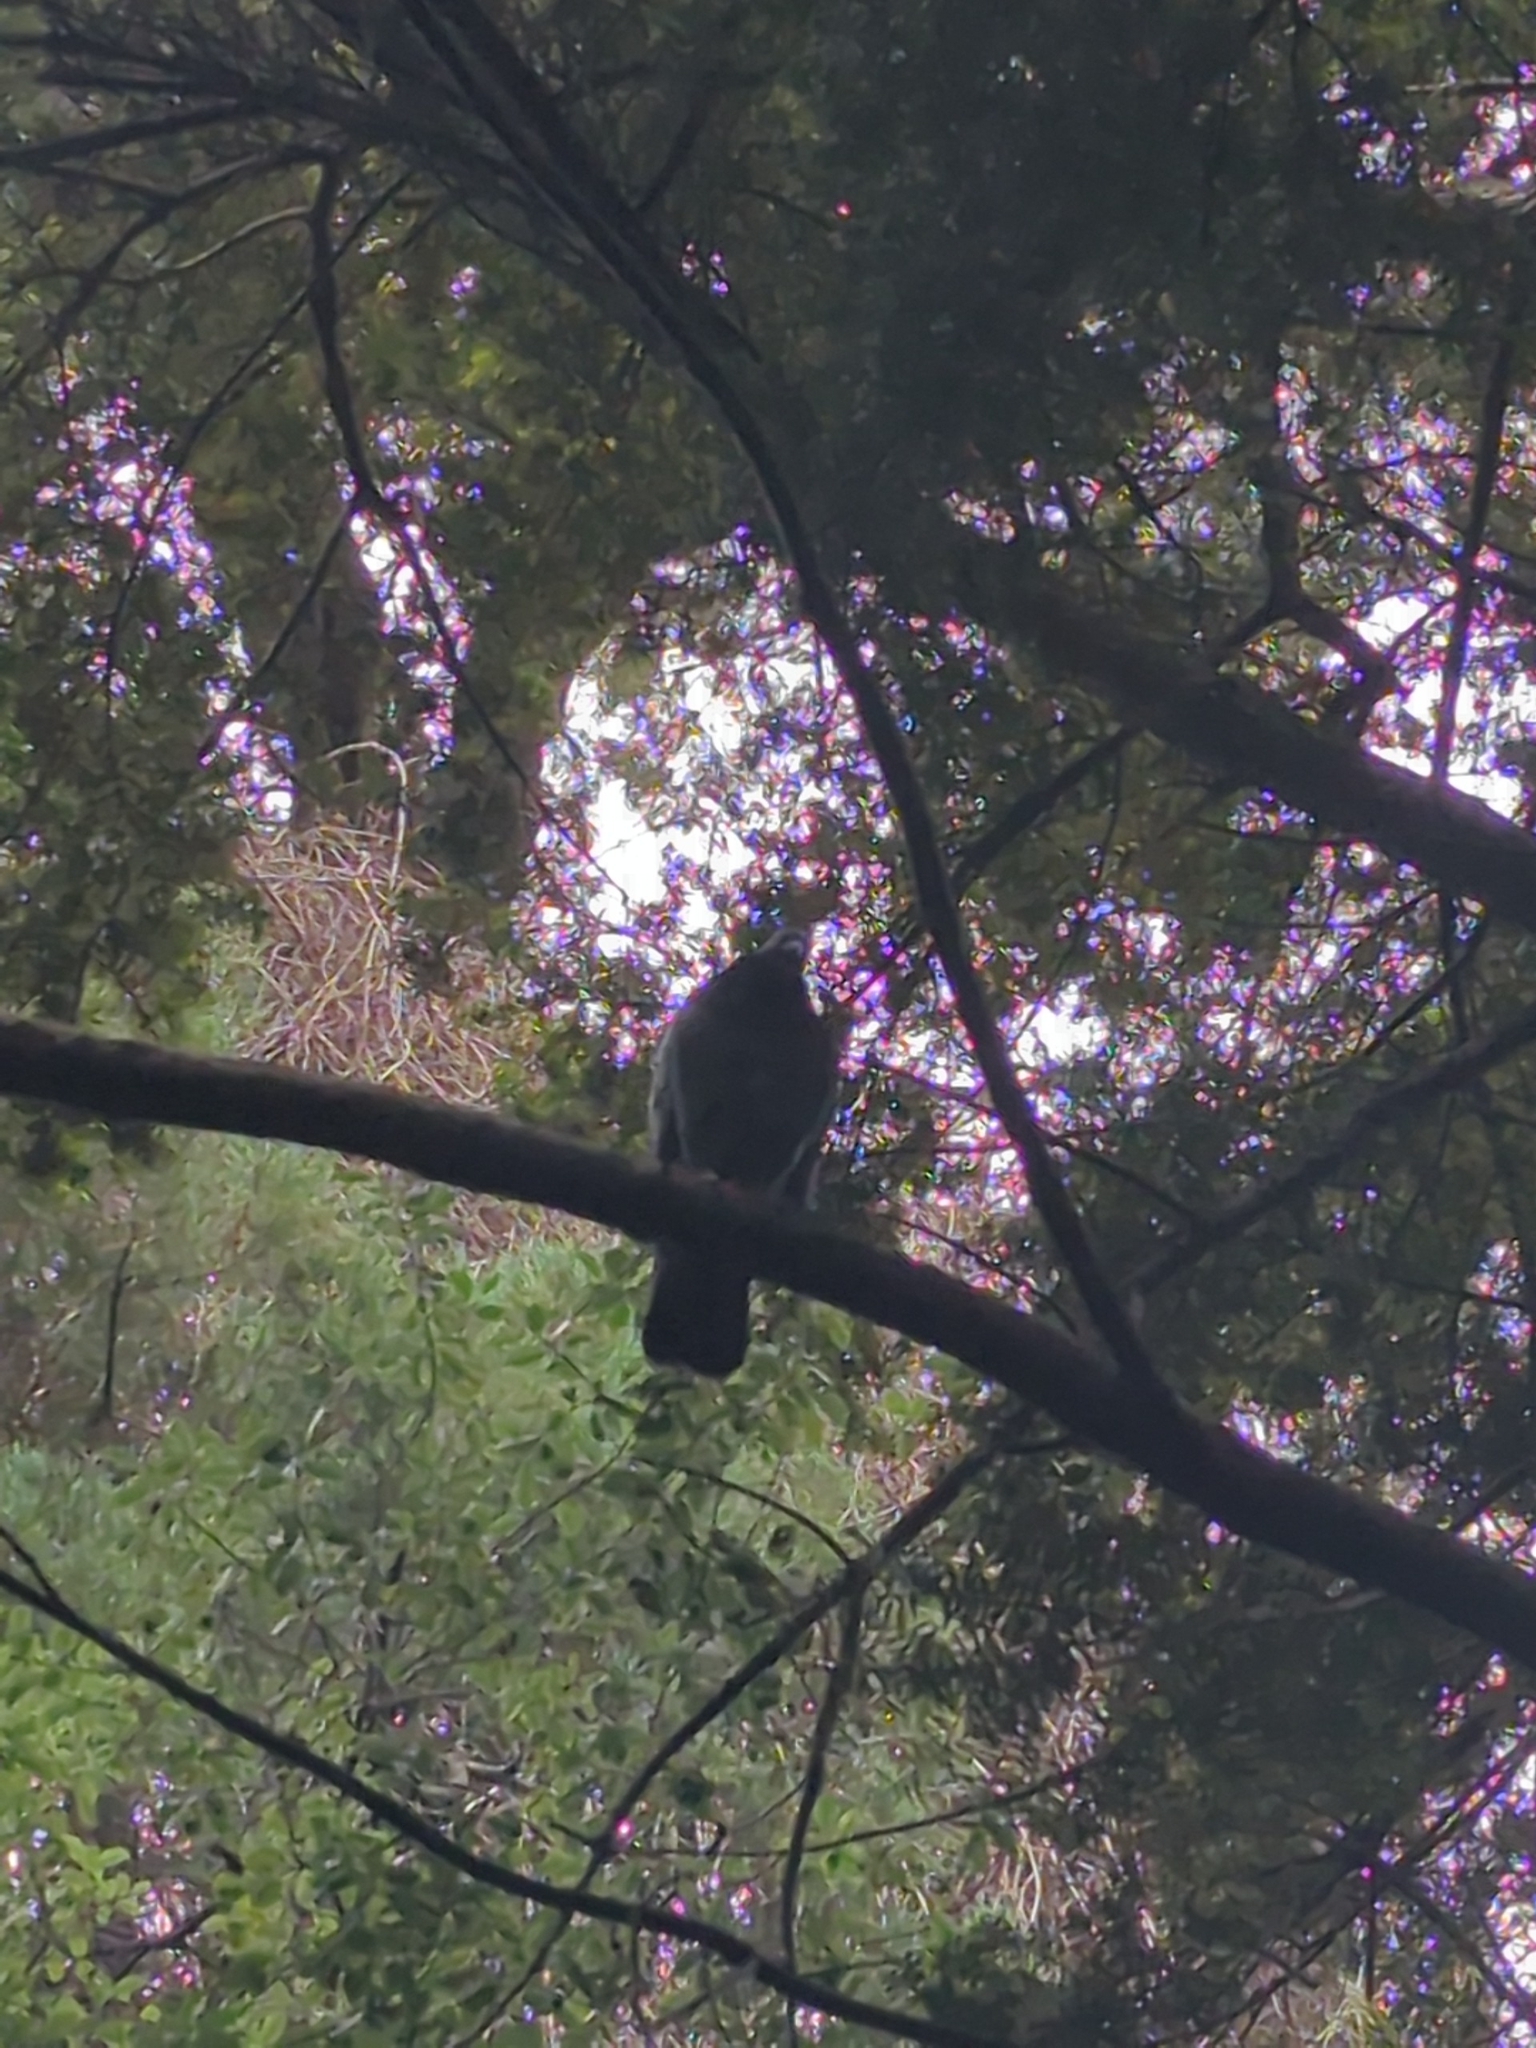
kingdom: Animalia
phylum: Chordata
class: Aves
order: Columbiformes
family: Columbidae
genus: Columba
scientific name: Columba livia
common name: Rock pigeon
